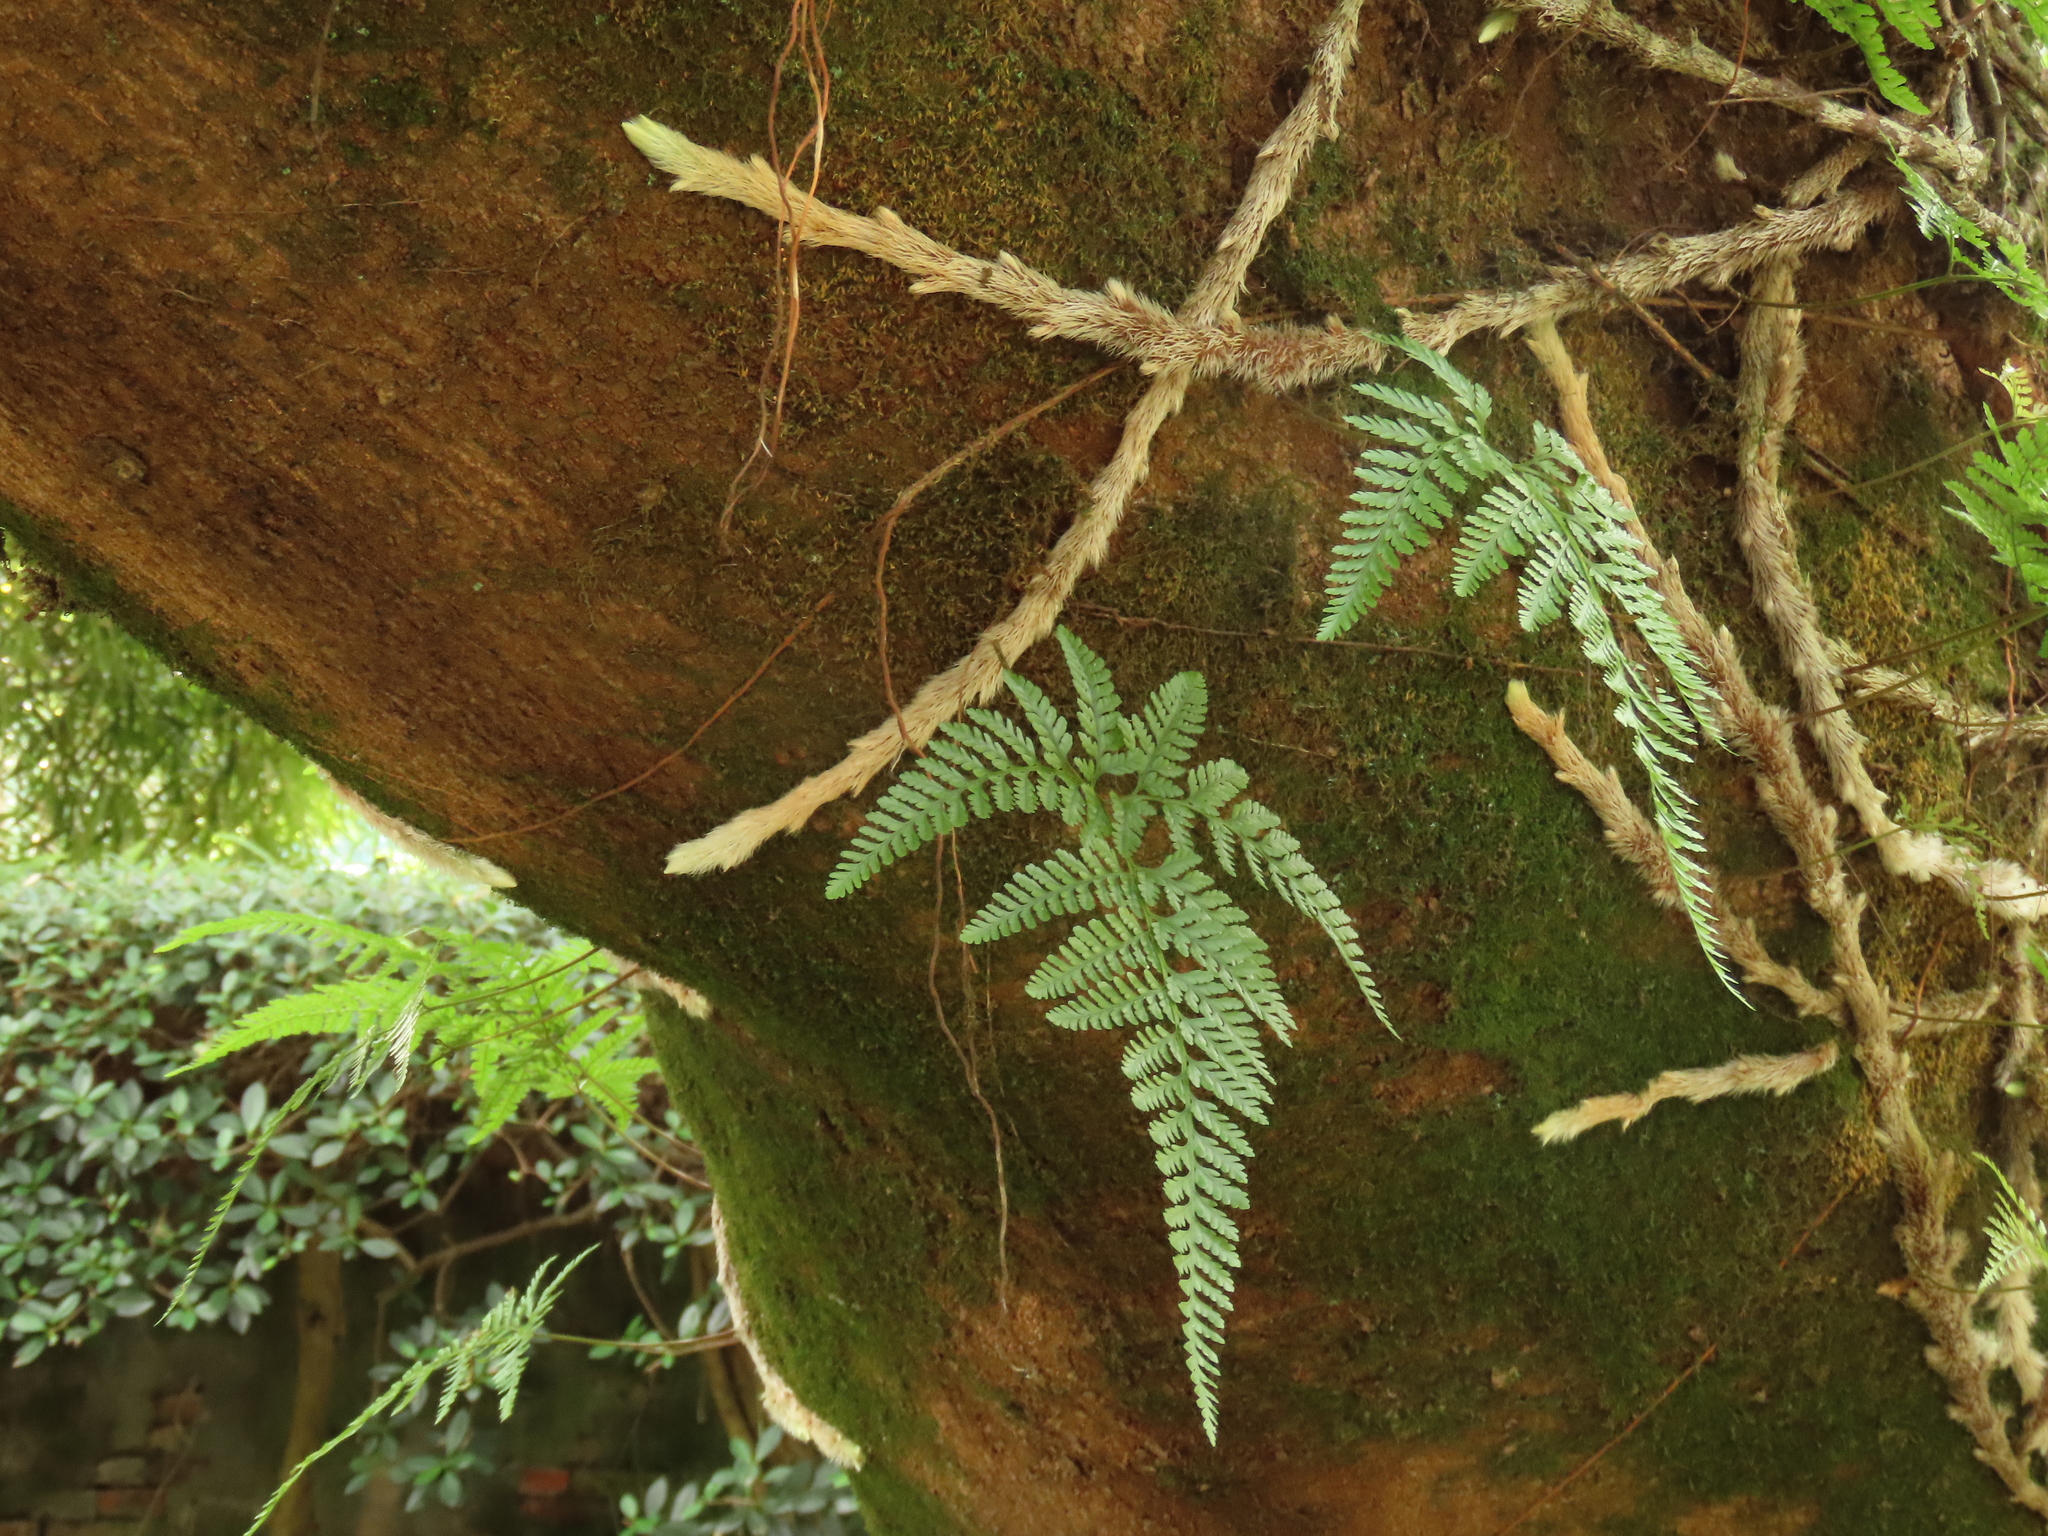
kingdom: Plantae
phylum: Tracheophyta
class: Polypodiopsida
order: Polypodiales
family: Davalliaceae
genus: Davallia
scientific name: Davallia griffithiana
